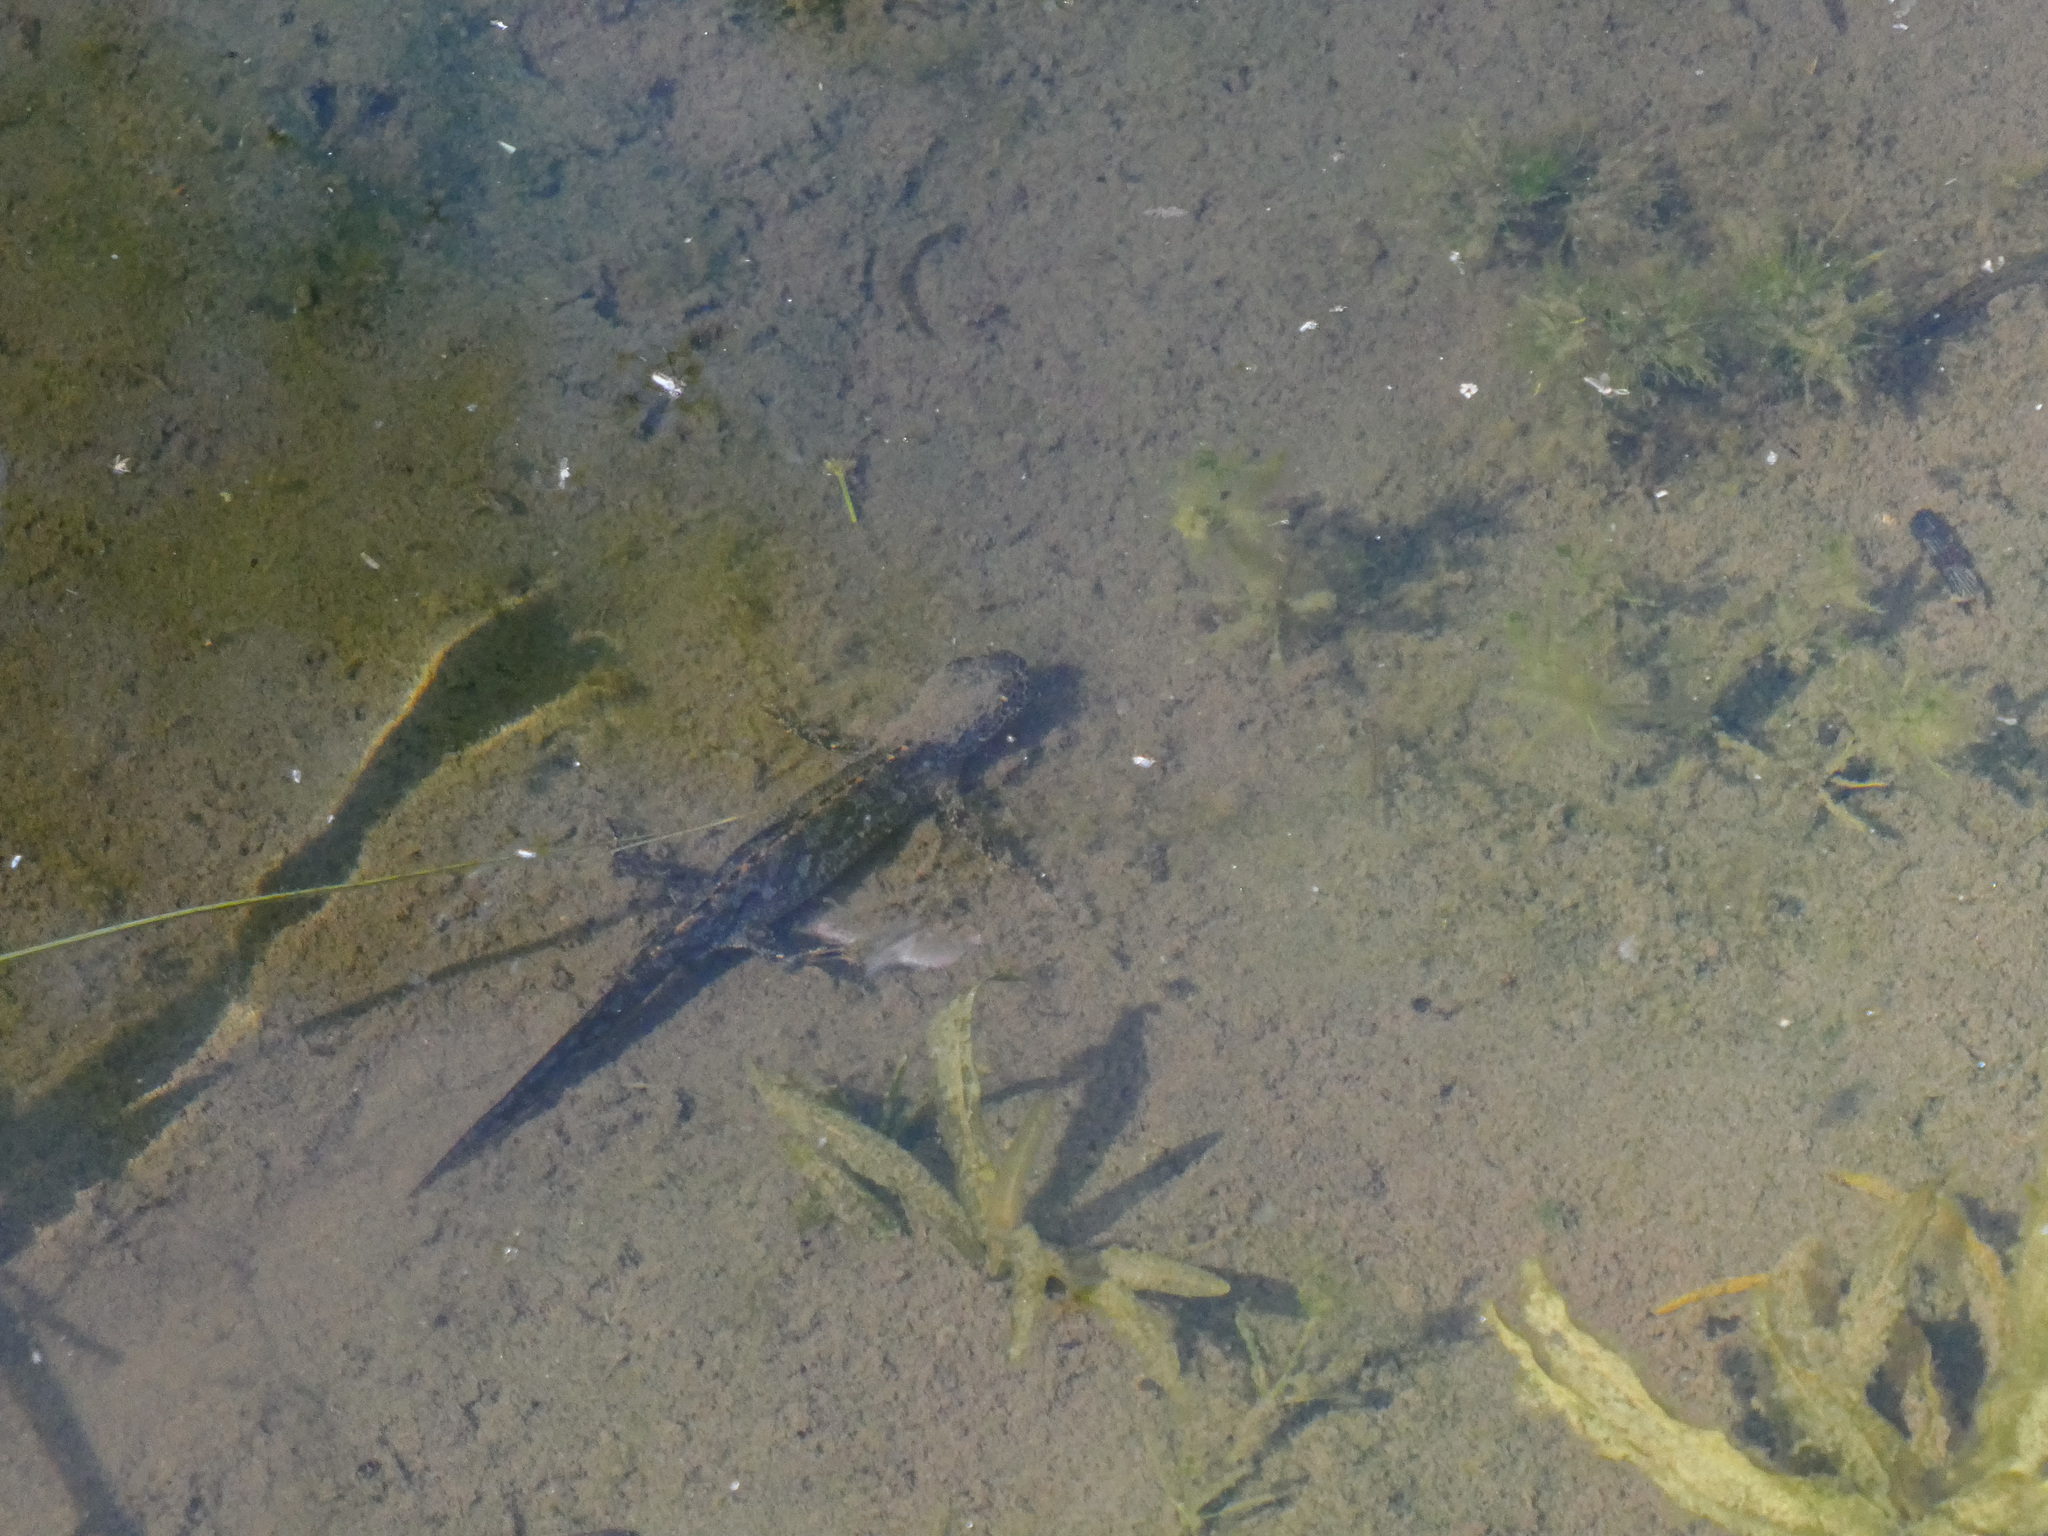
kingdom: Animalia
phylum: Chordata
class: Amphibia
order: Caudata
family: Salamandridae
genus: Ichthyosaura
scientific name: Ichthyosaura alpestris
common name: Alpine newt
